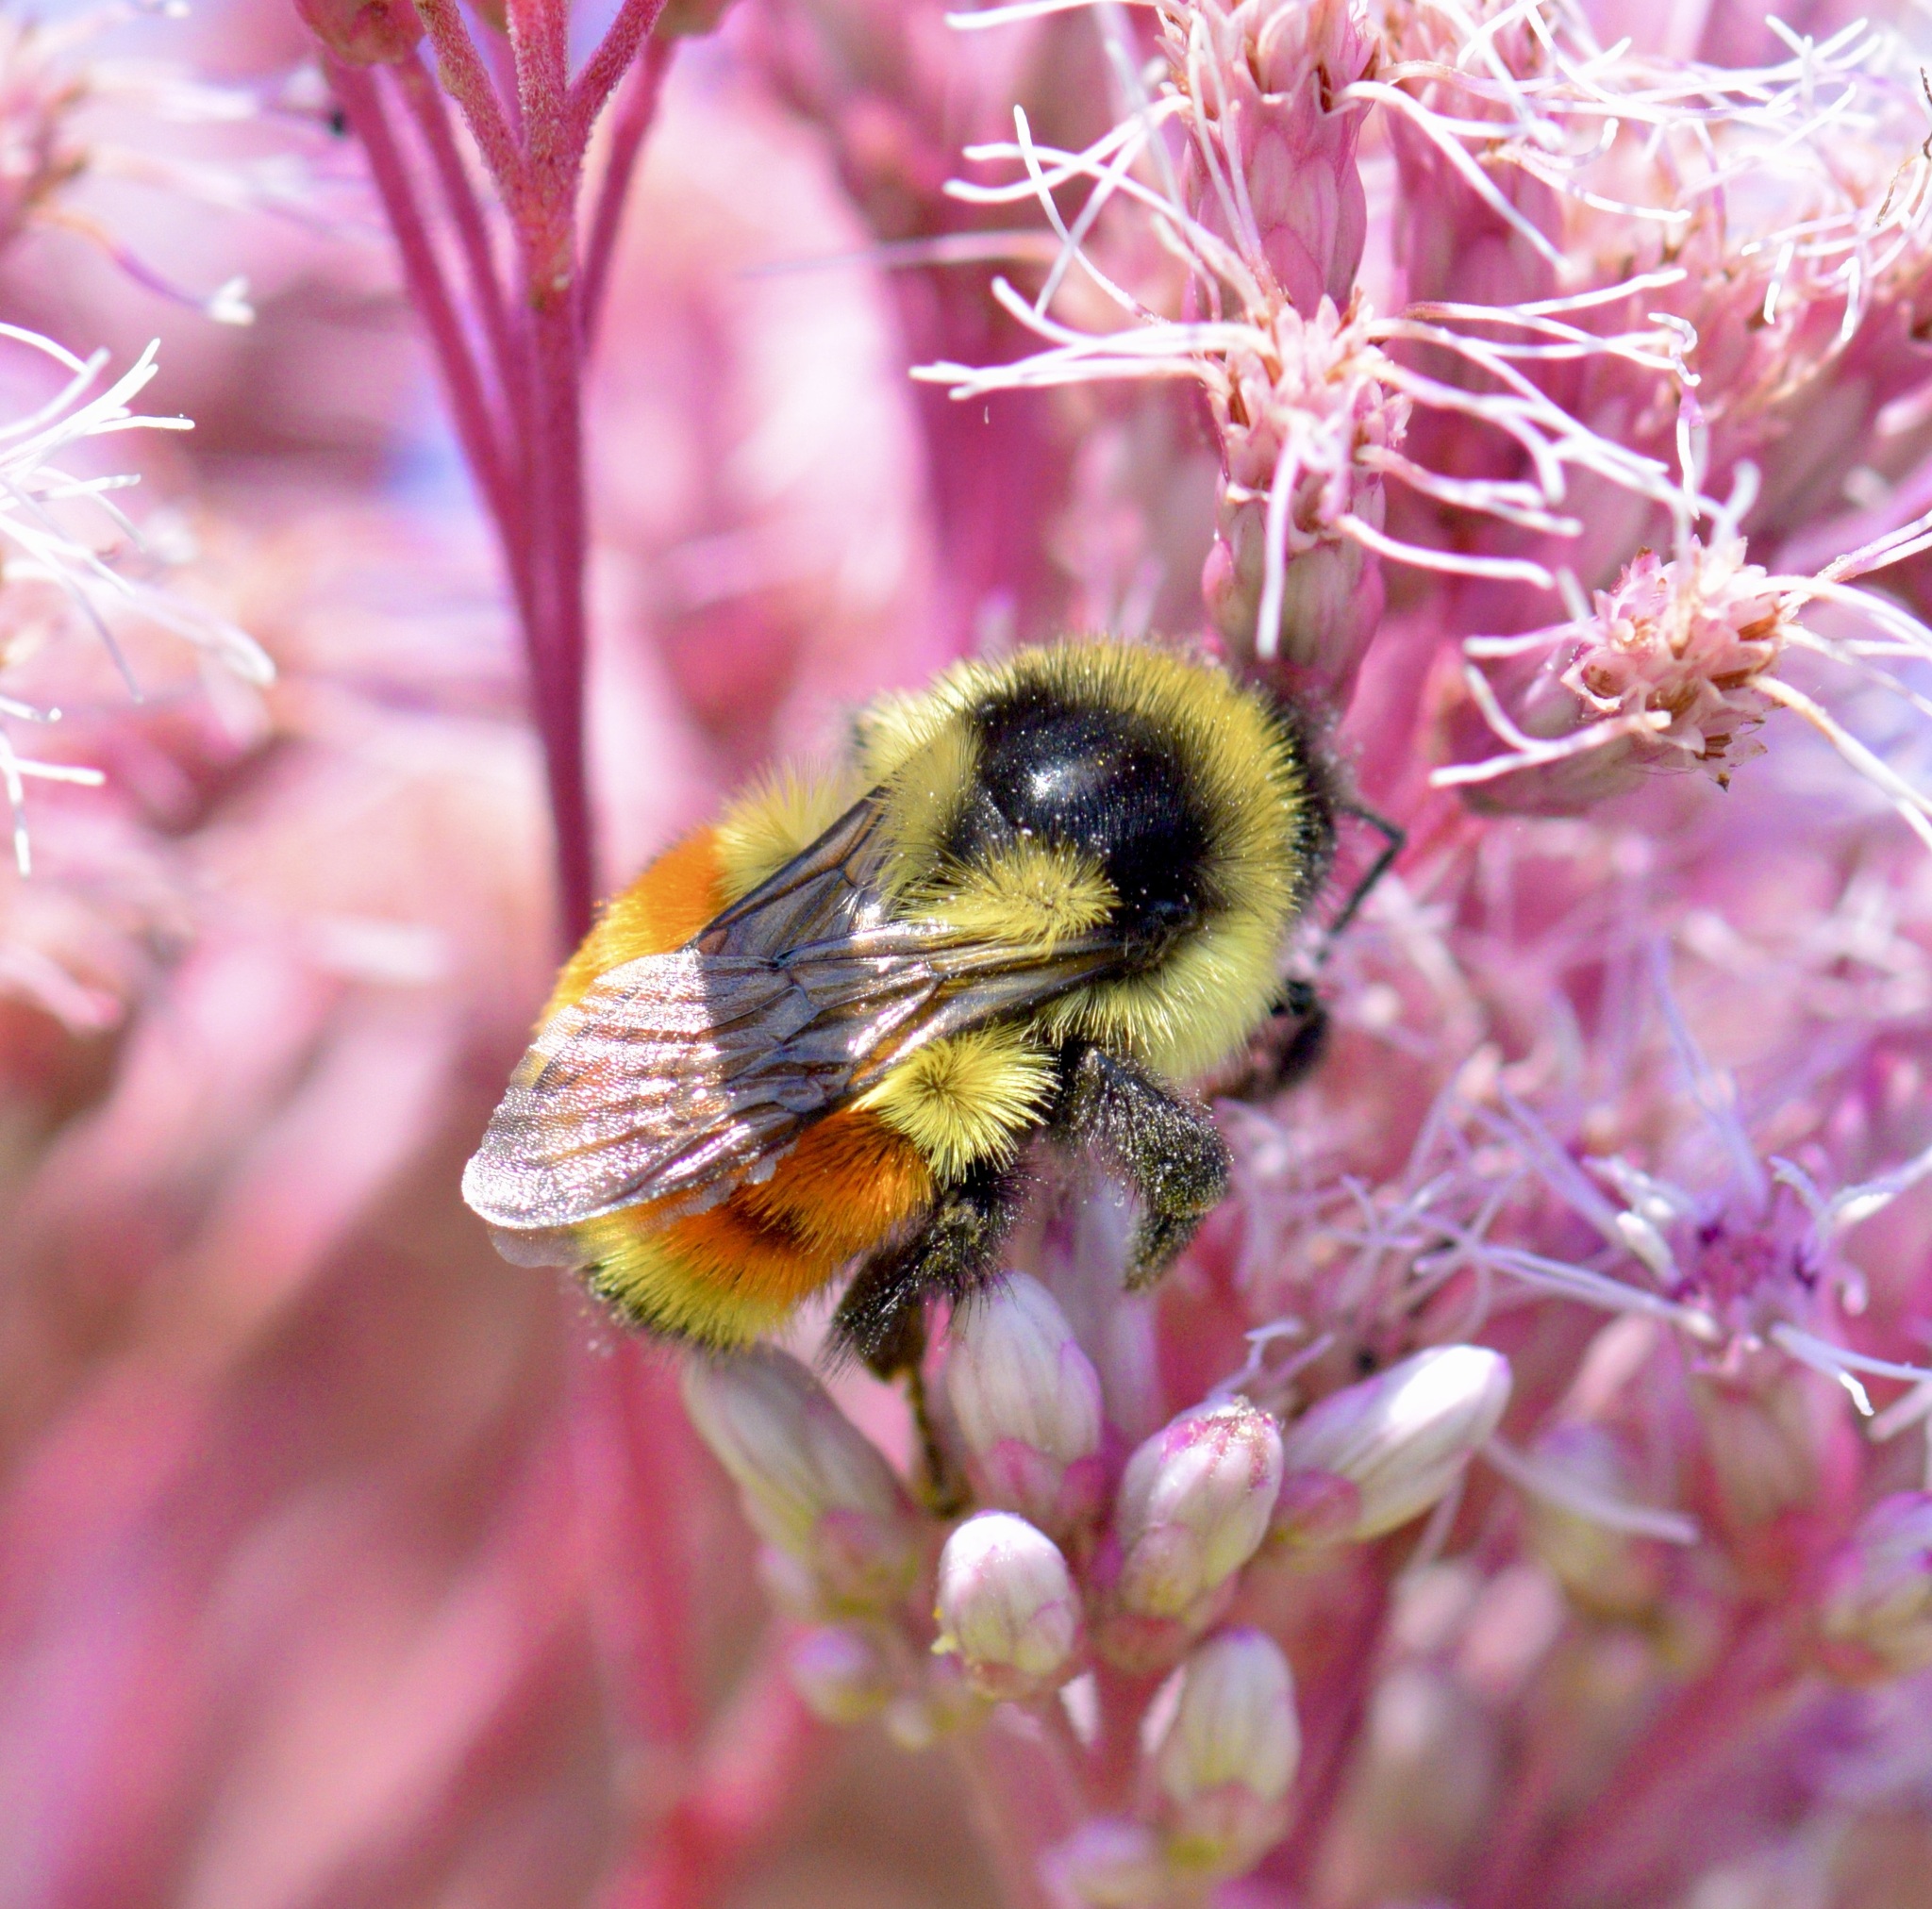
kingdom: Animalia
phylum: Arthropoda
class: Insecta
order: Hymenoptera
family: Apidae
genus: Bombus
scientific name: Bombus ternarius
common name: Tri-colored bumble bee
